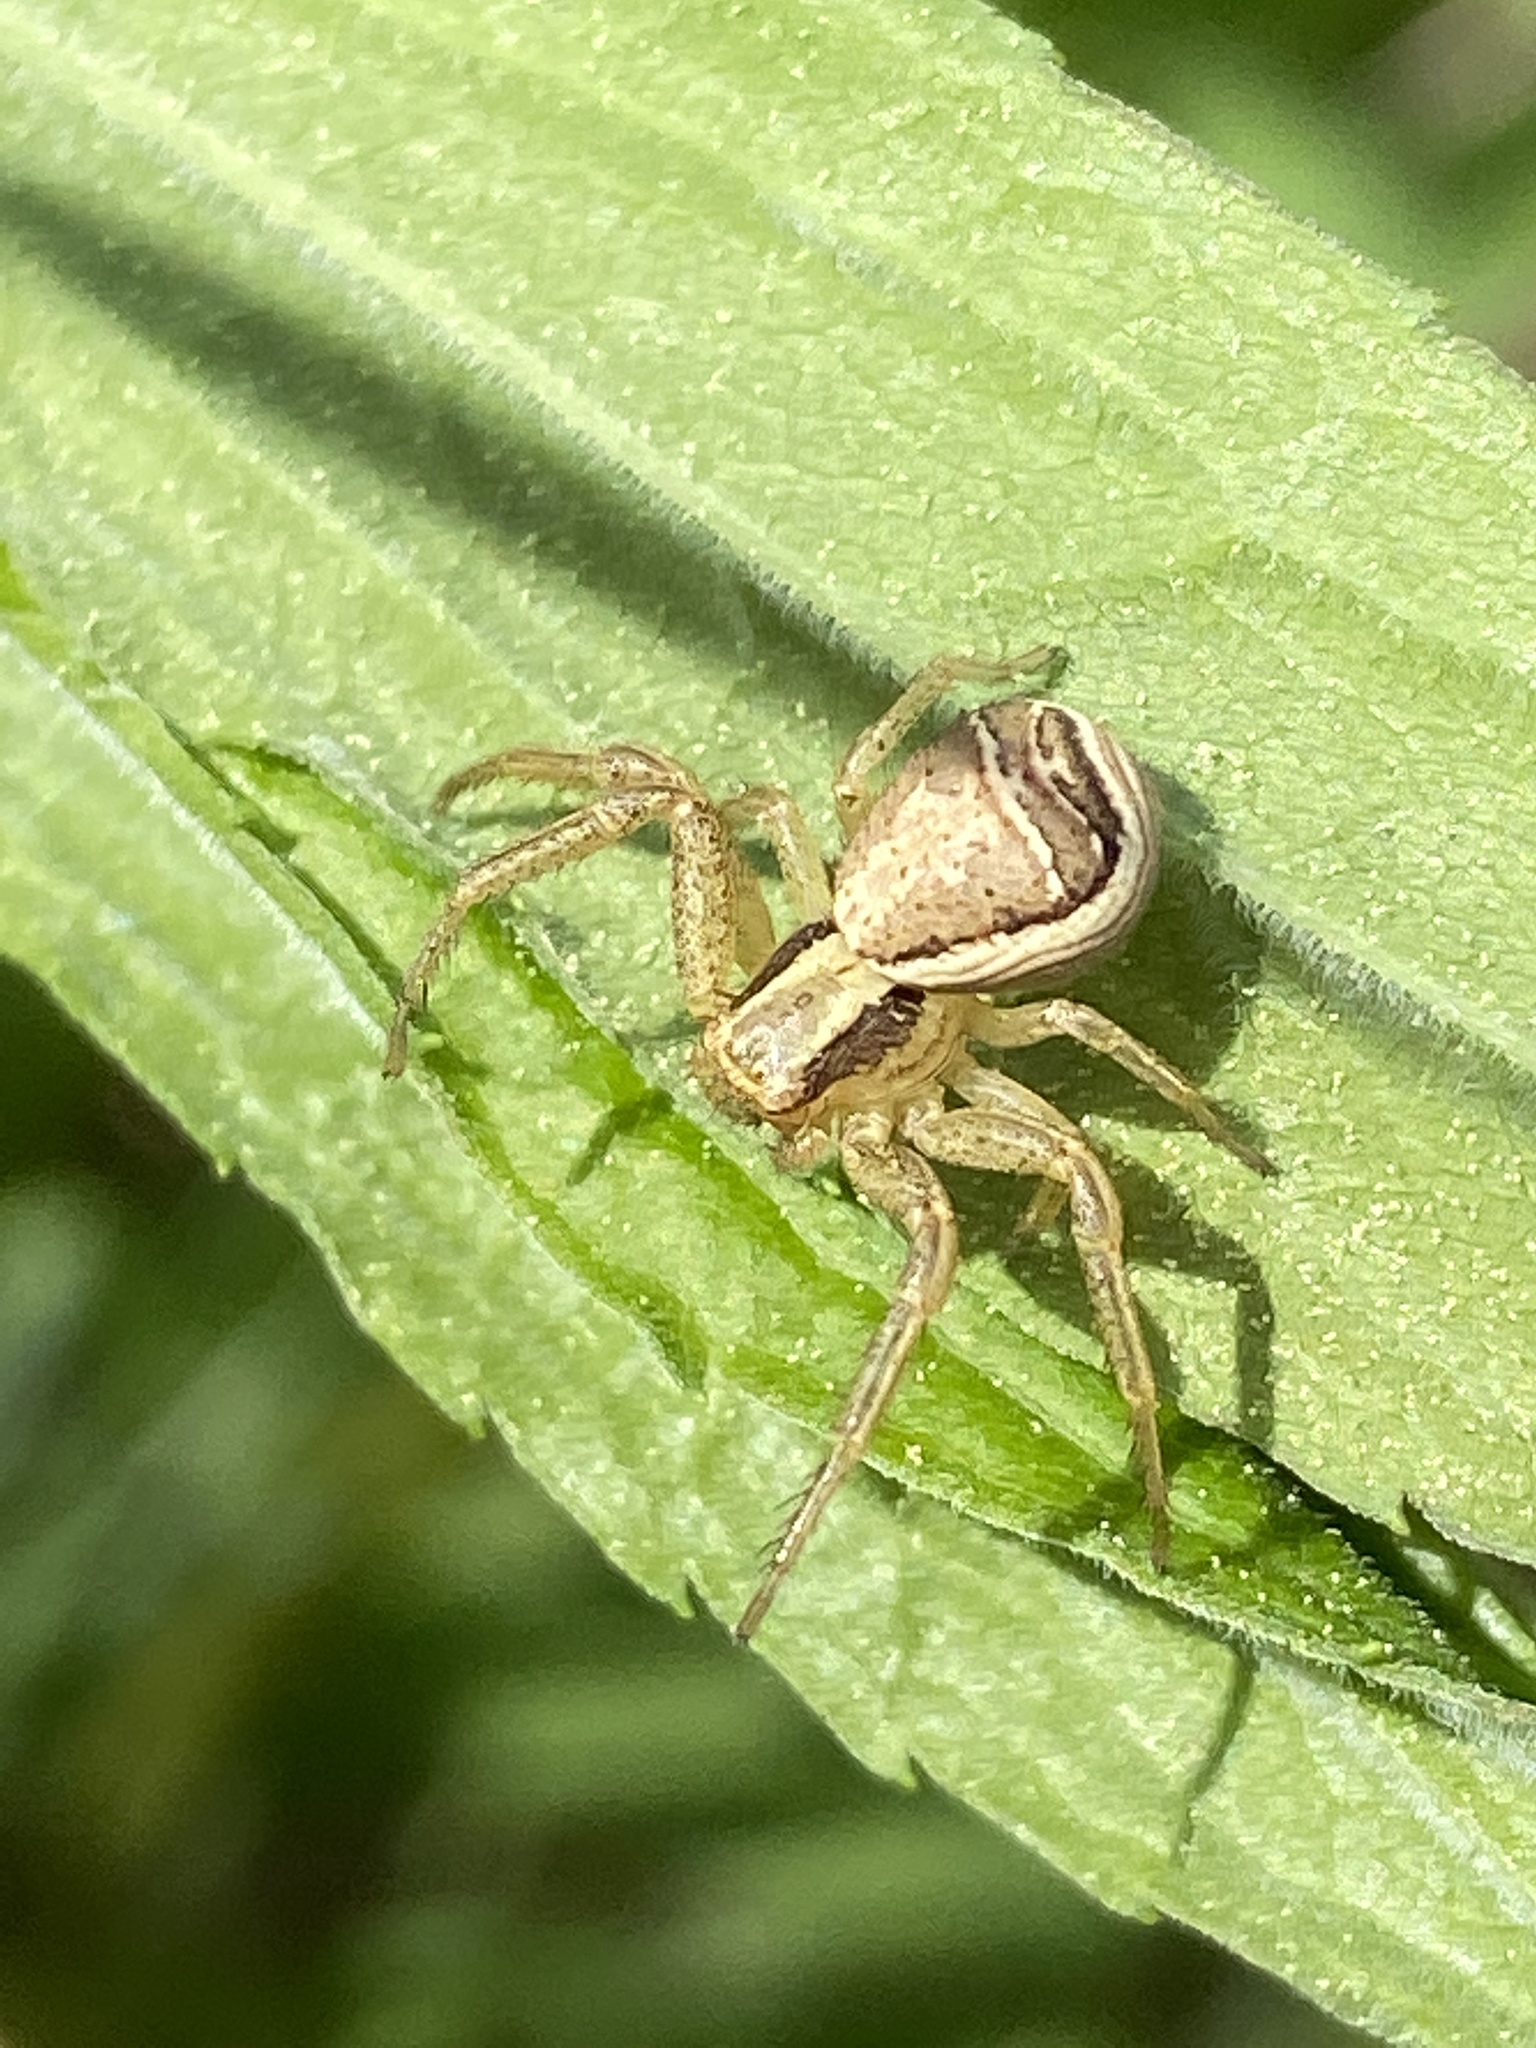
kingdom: Animalia
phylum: Arthropoda
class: Arachnida
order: Araneae
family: Thomisidae
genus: Xysticus
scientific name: Xysticus ulmi
